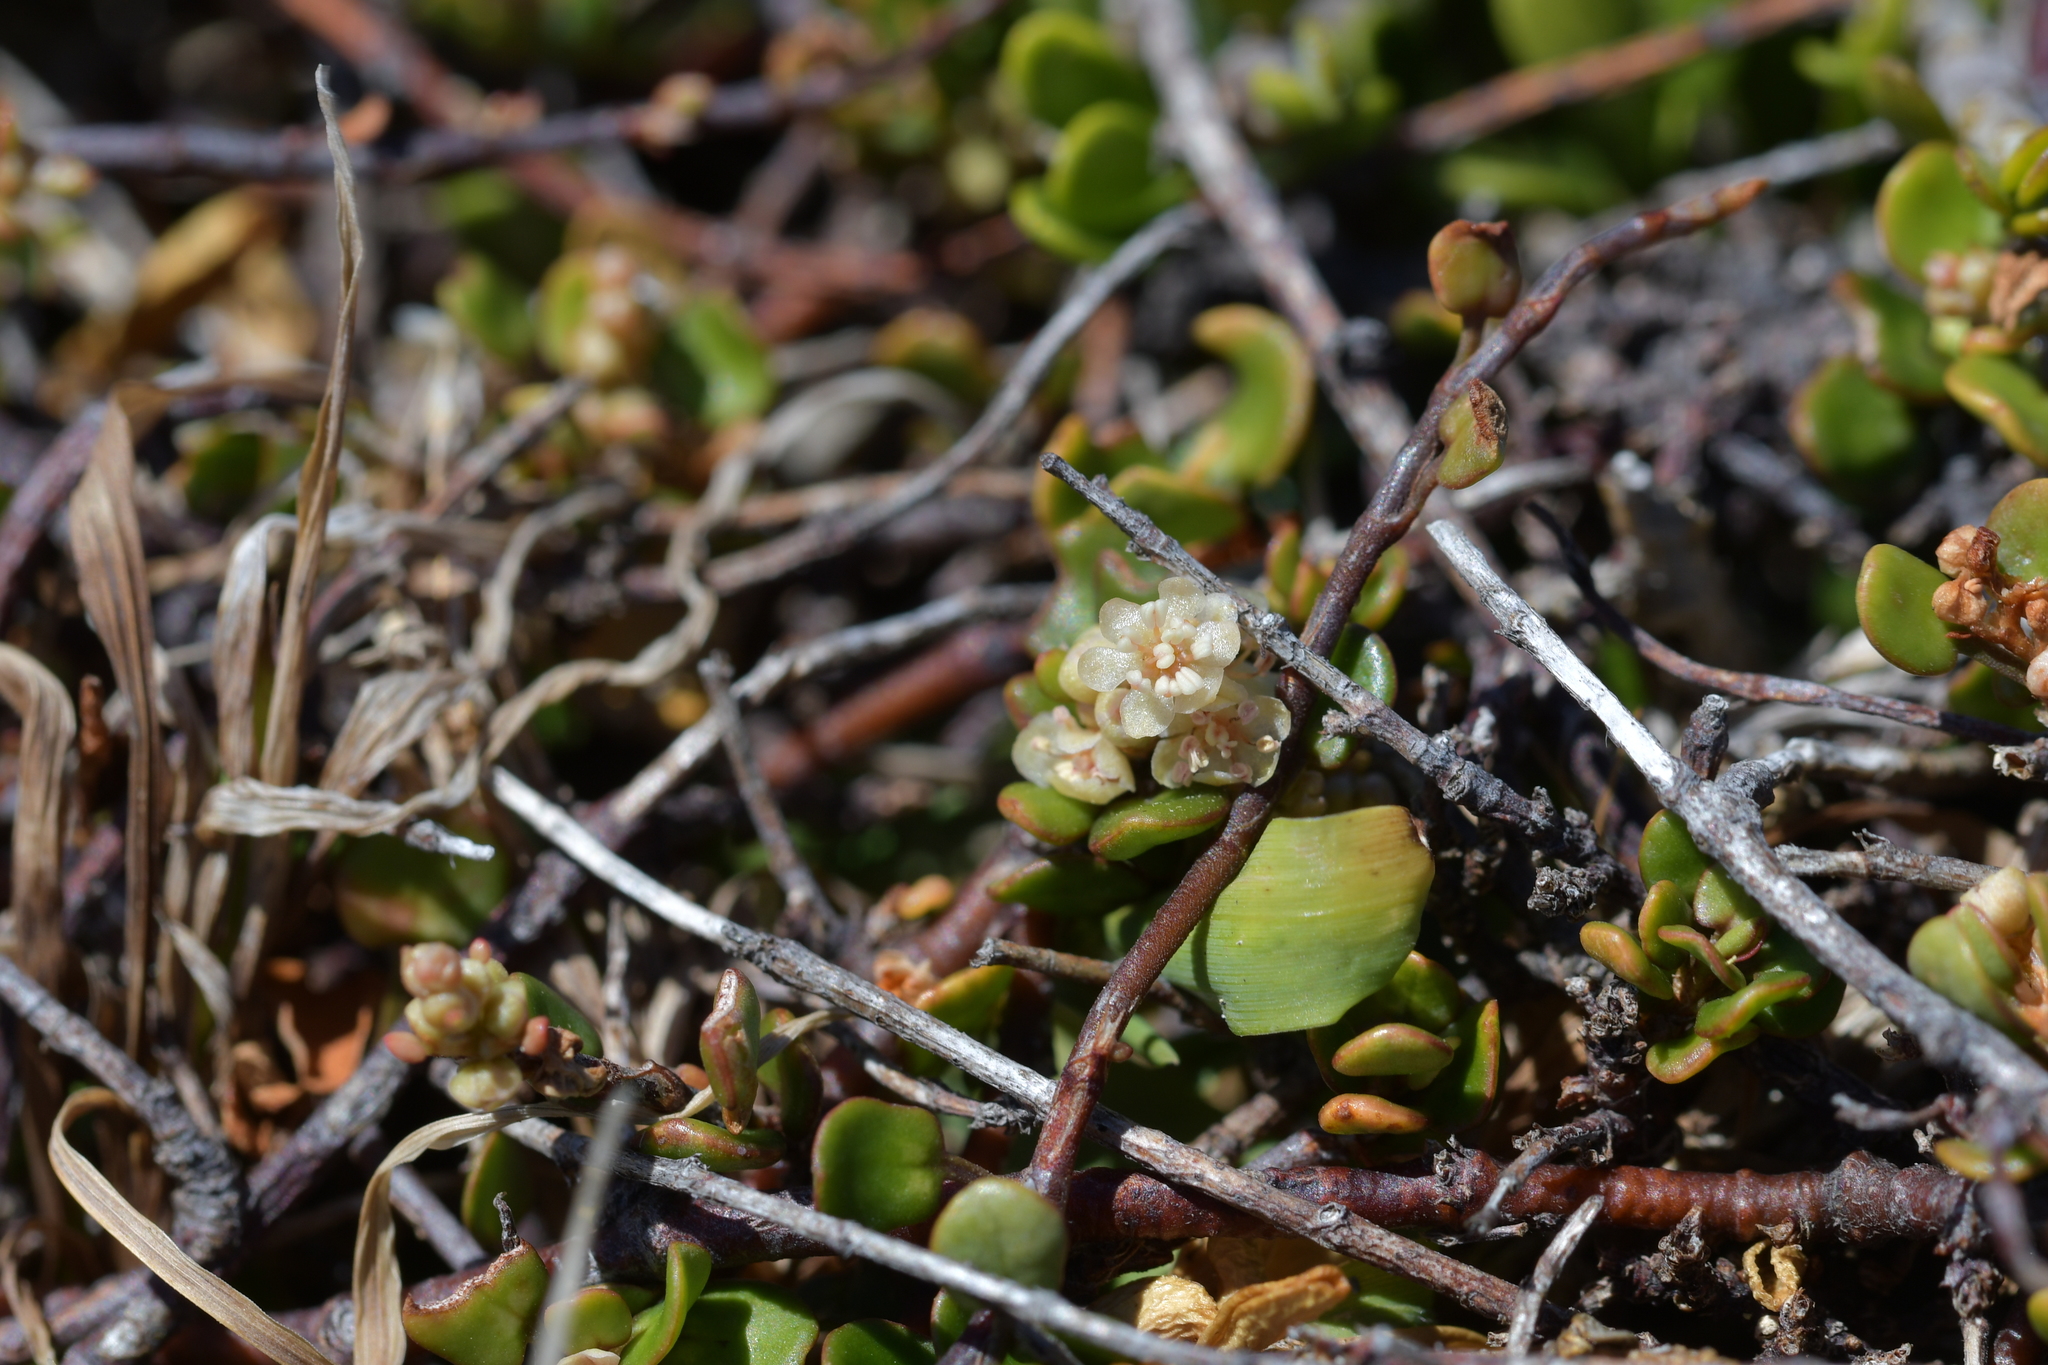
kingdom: Plantae
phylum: Tracheophyta
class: Magnoliopsida
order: Caryophyllales
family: Polygonaceae
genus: Muehlenbeckia
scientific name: Muehlenbeckia complexa
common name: Wireplant
